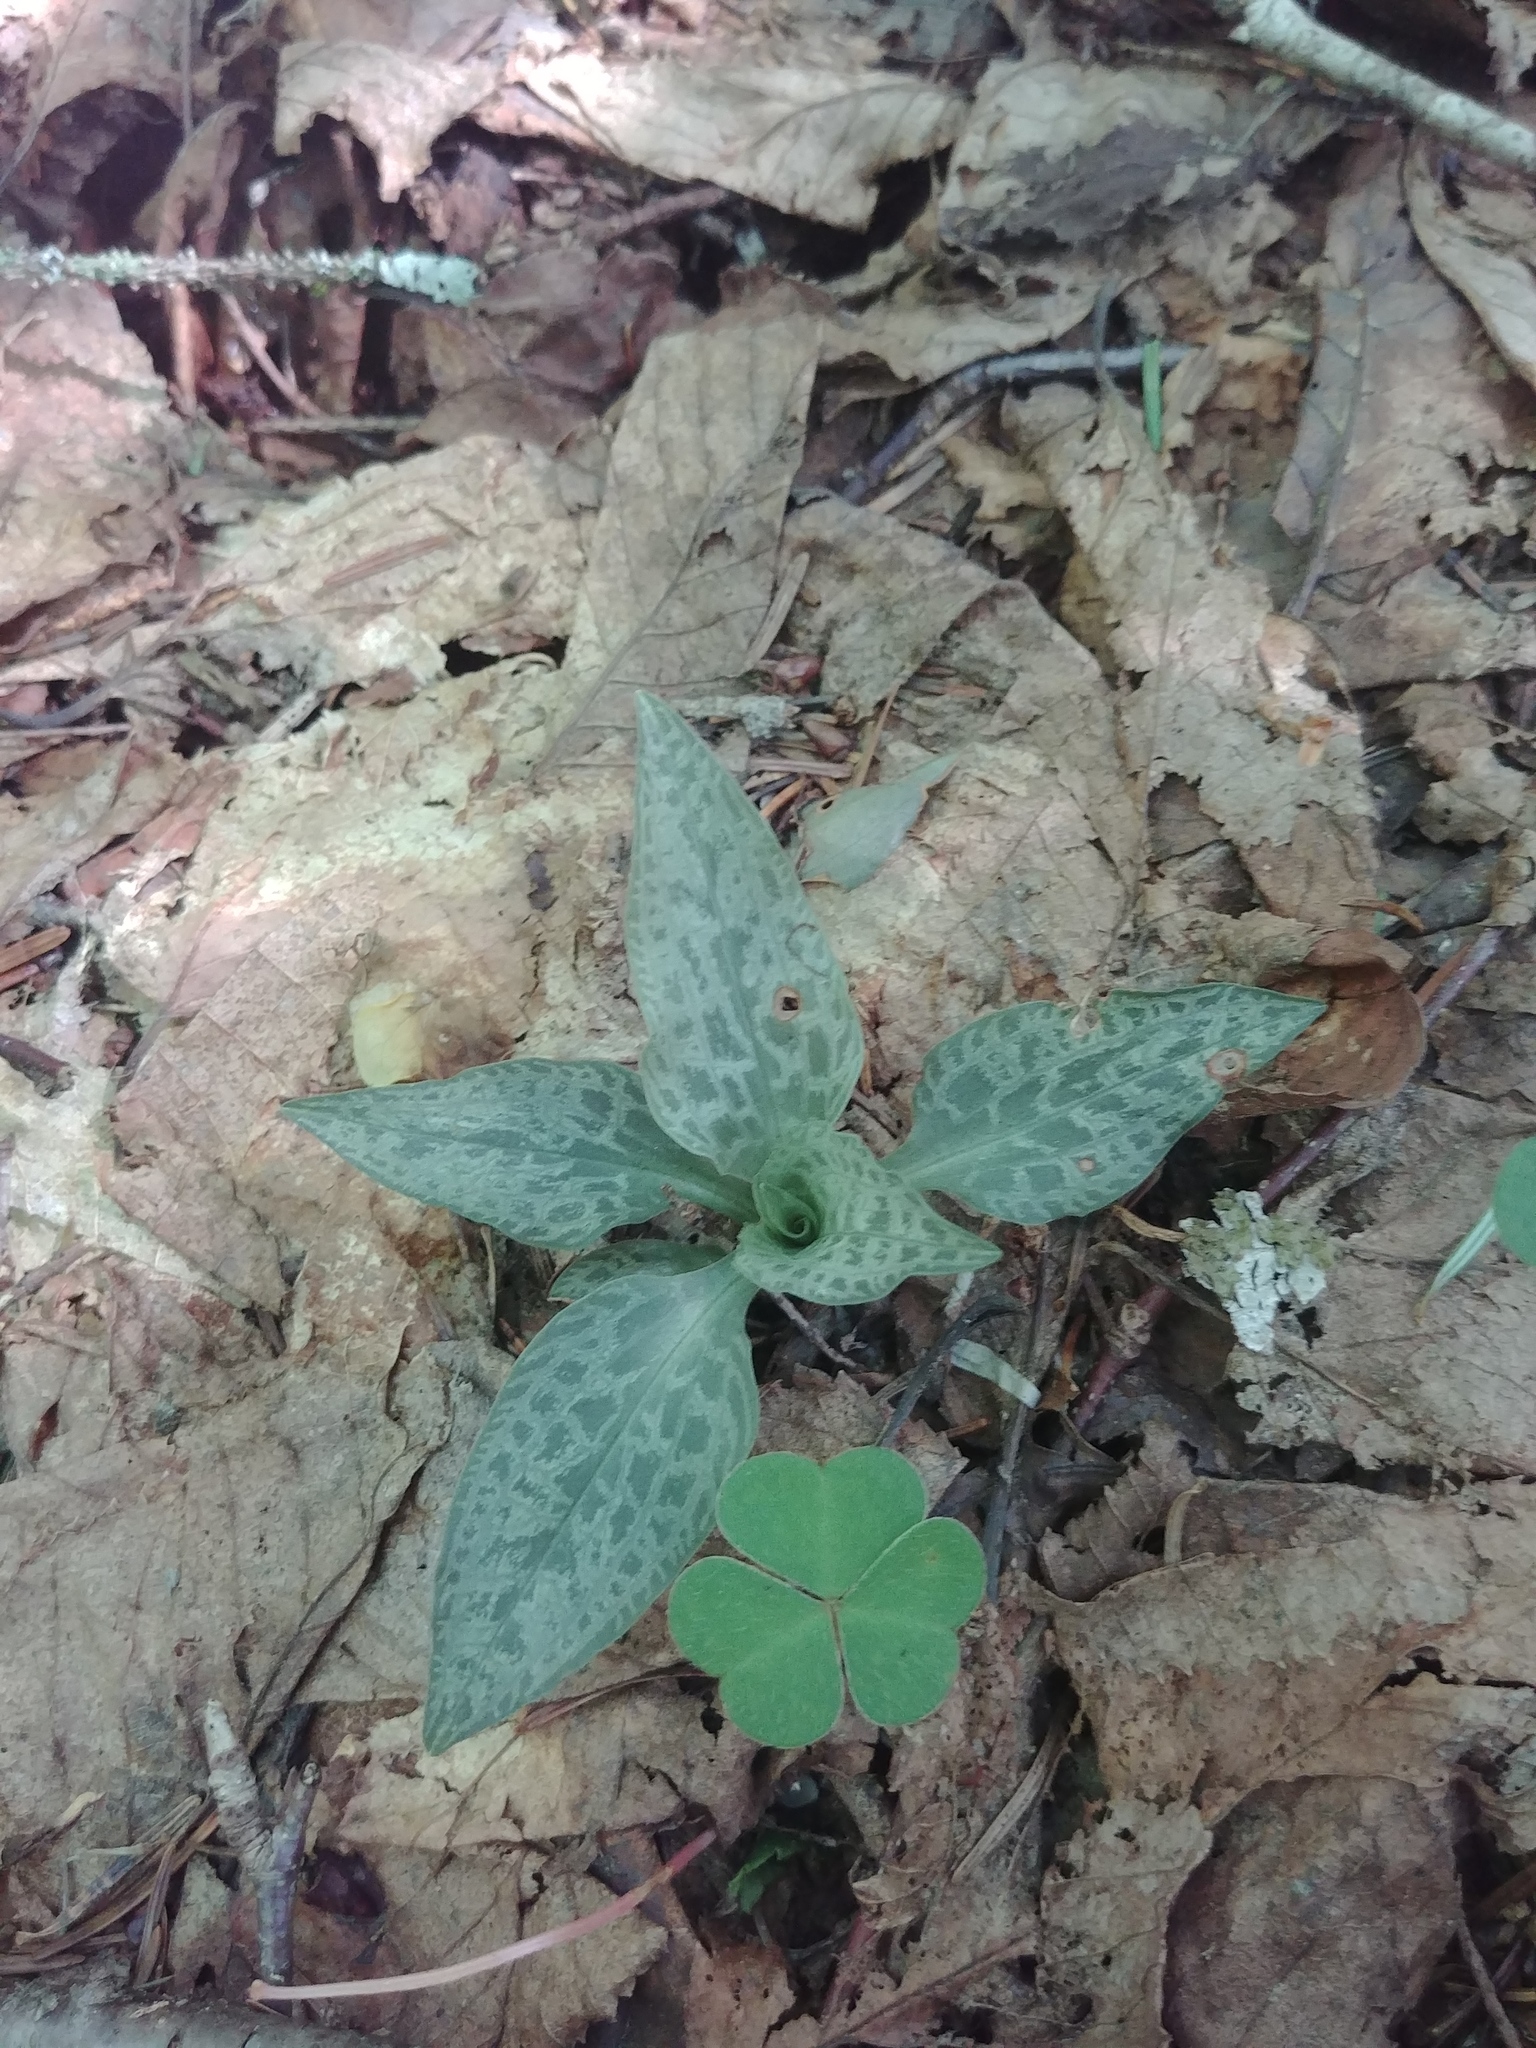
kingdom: Plantae
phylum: Tracheophyta
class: Liliopsida
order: Asparagales
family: Orchidaceae
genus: Goodyera
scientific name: Goodyera tesselata
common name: Checkered rattlesnake-plantain
